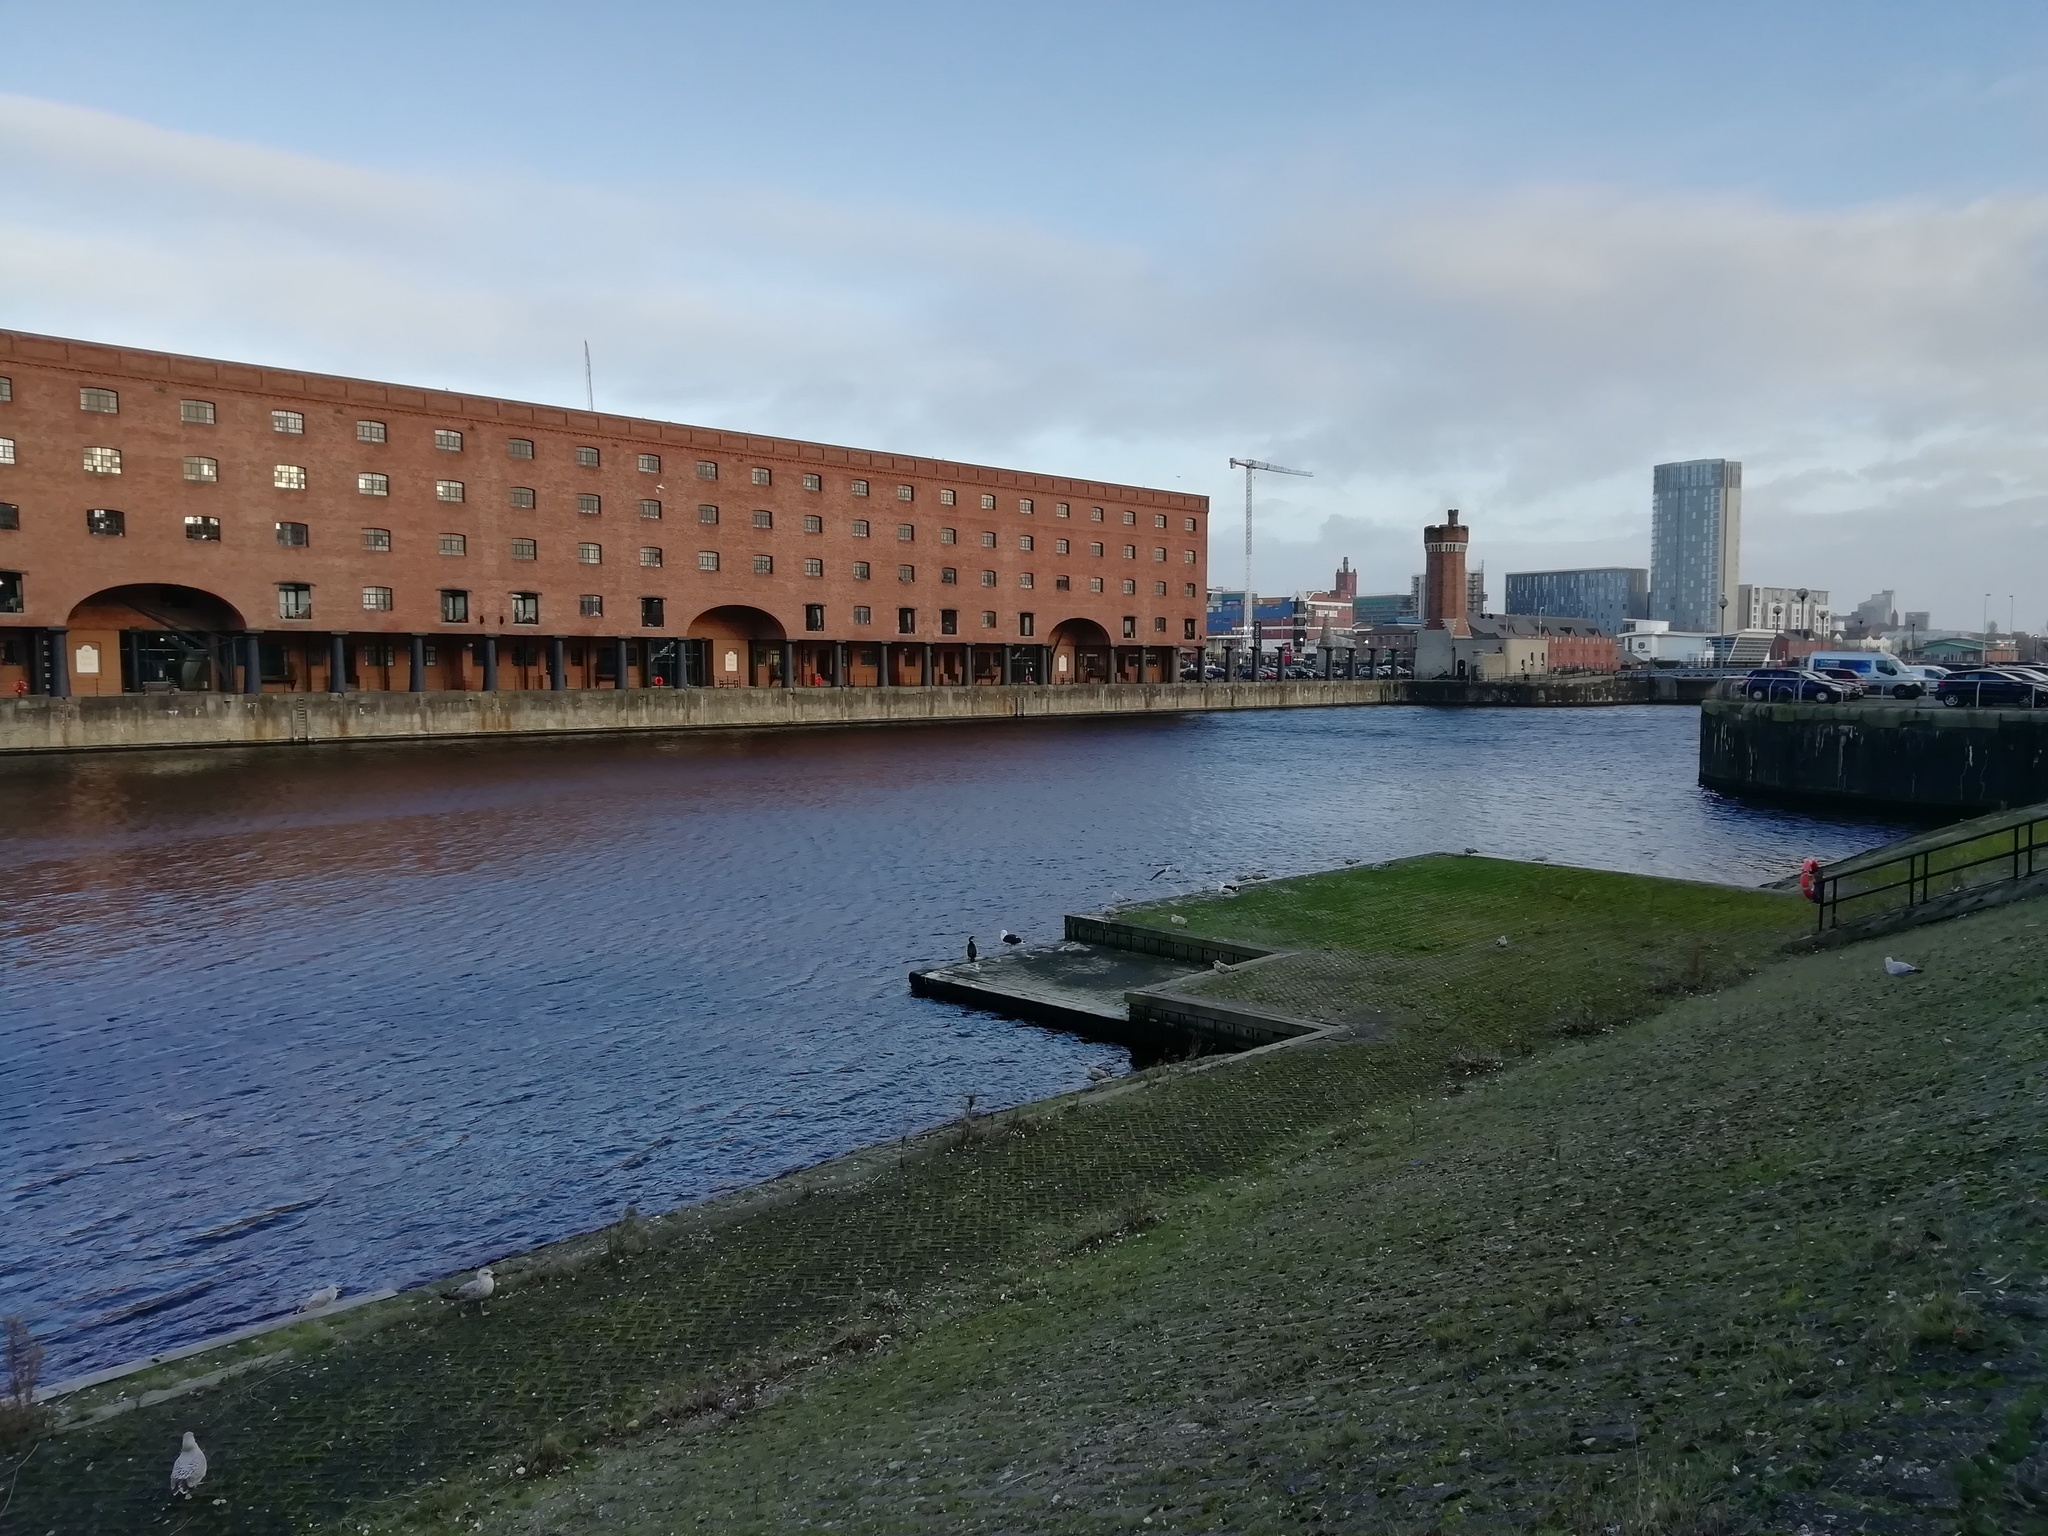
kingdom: Animalia
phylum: Chordata
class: Aves
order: Suliformes
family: Phalacrocoracidae
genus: Phalacrocorax
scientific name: Phalacrocorax carbo
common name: Great cormorant
